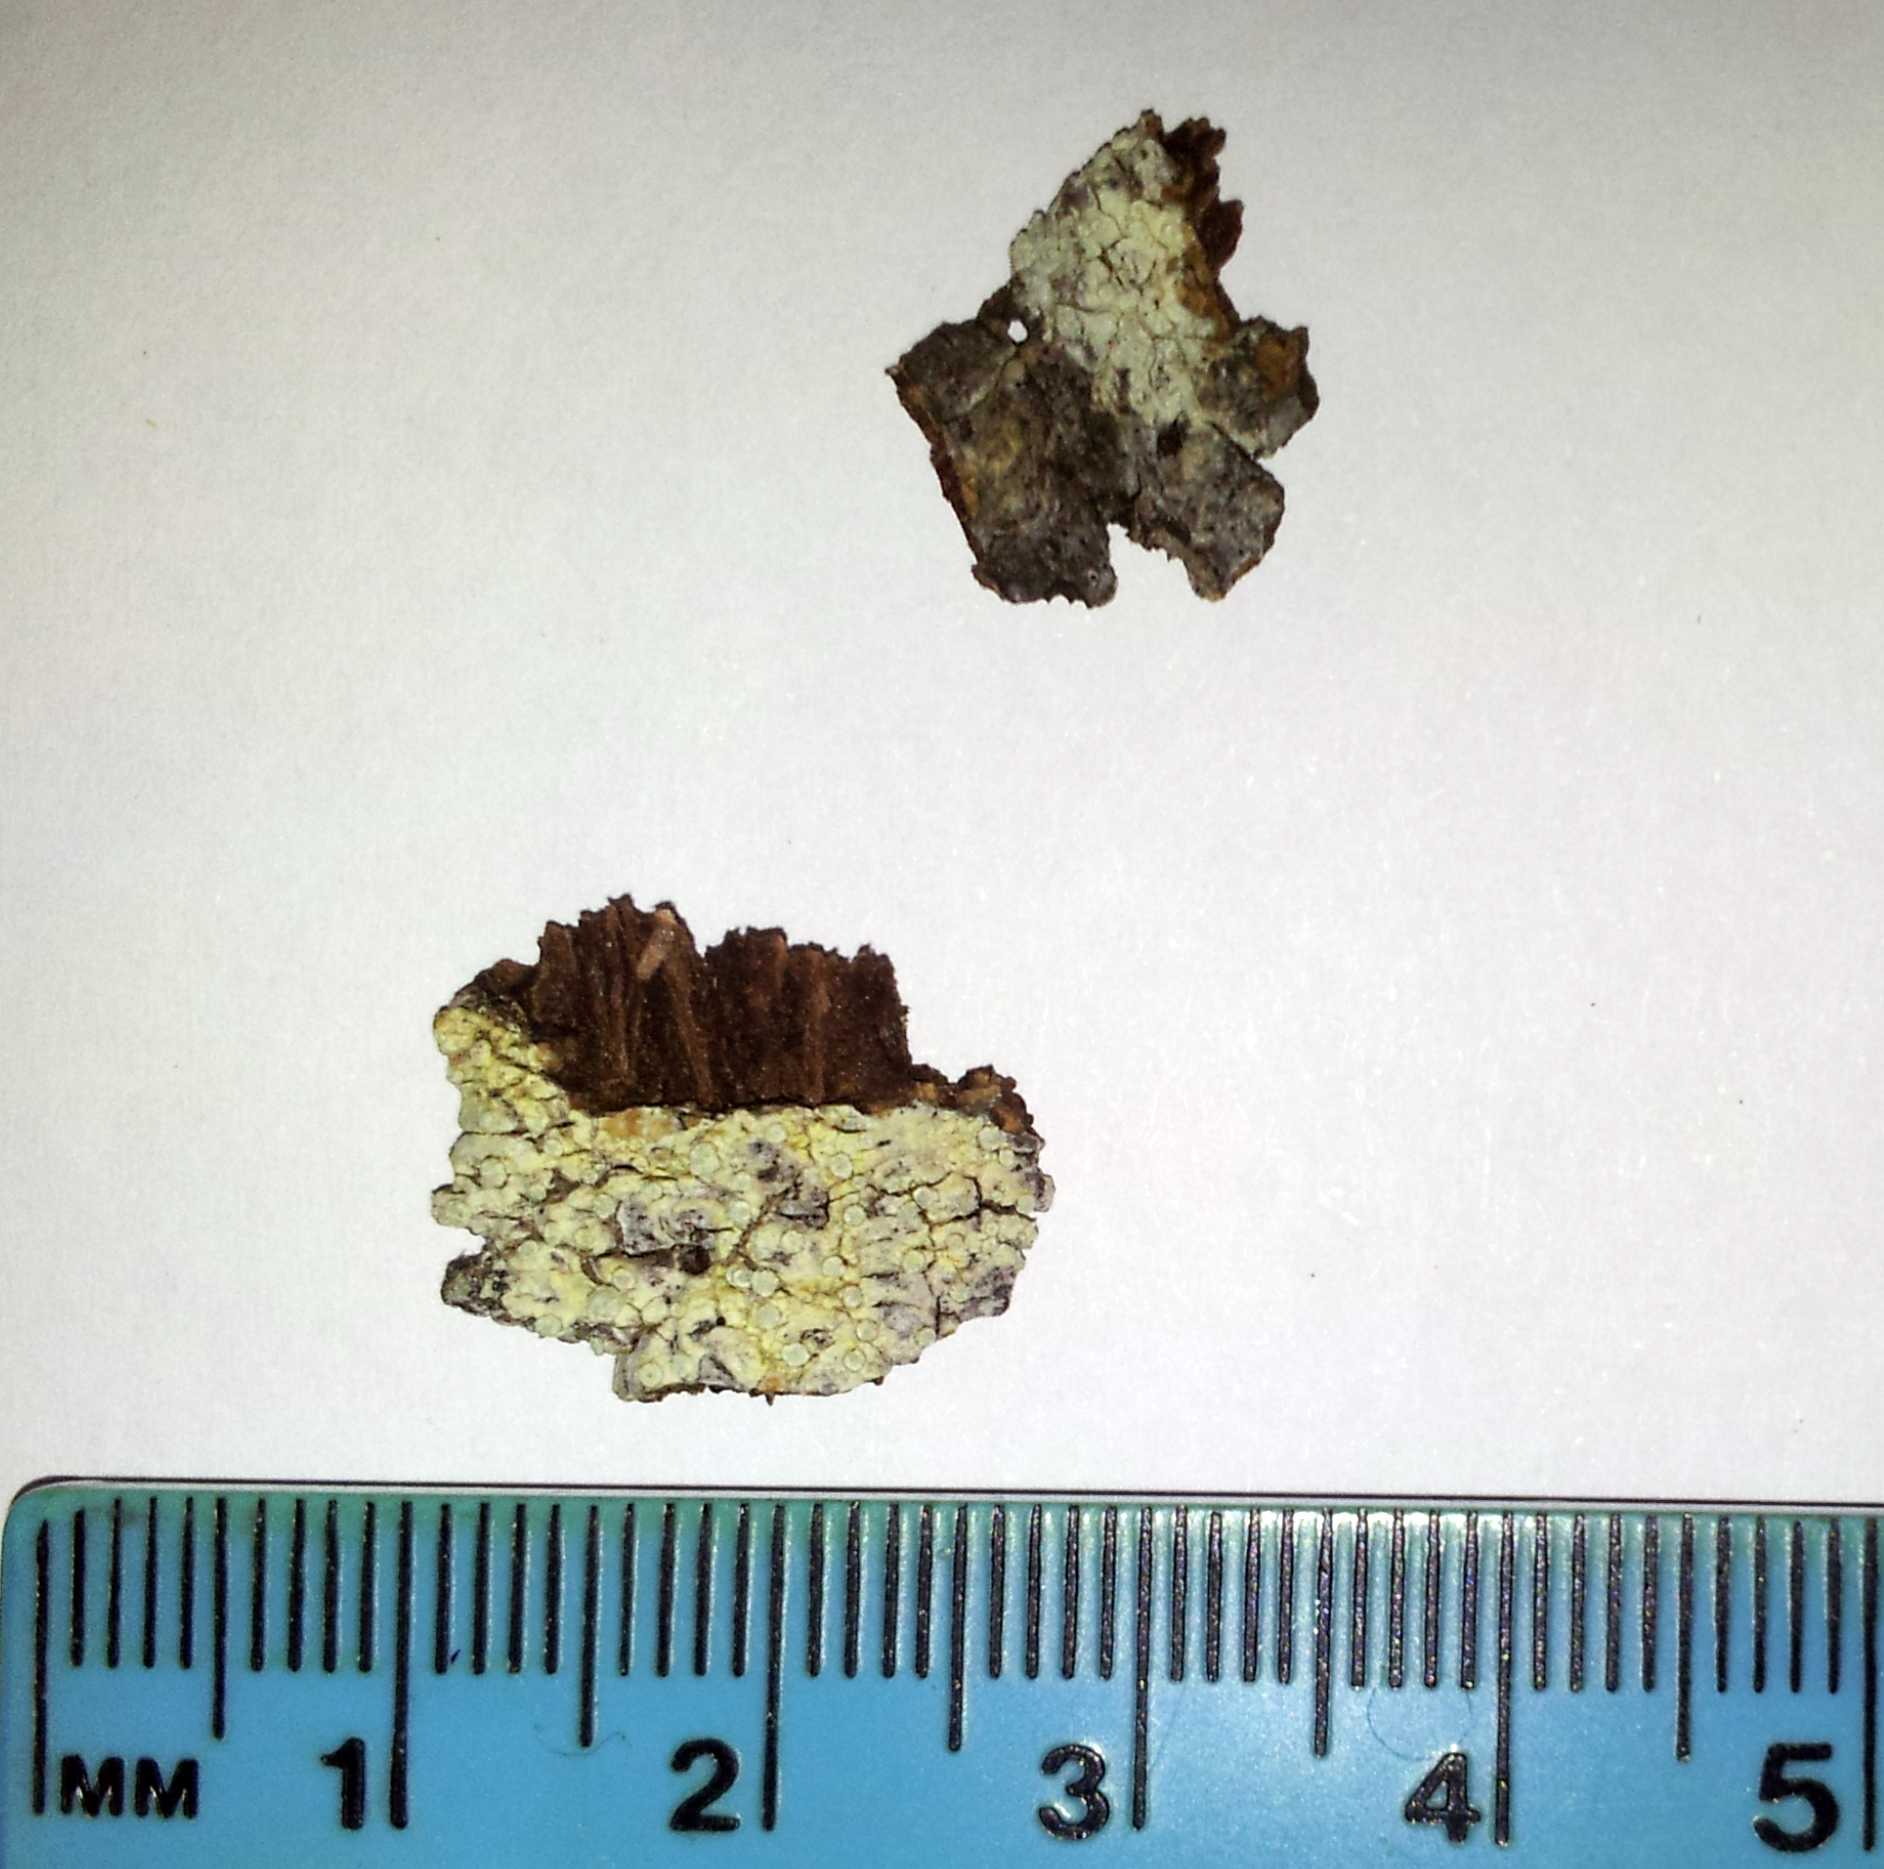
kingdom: Fungi
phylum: Ascomycota
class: Lecanoromycetes
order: Pertusariales
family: Pertusariaceae
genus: Pertusaria
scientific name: Pertusaria puffina
